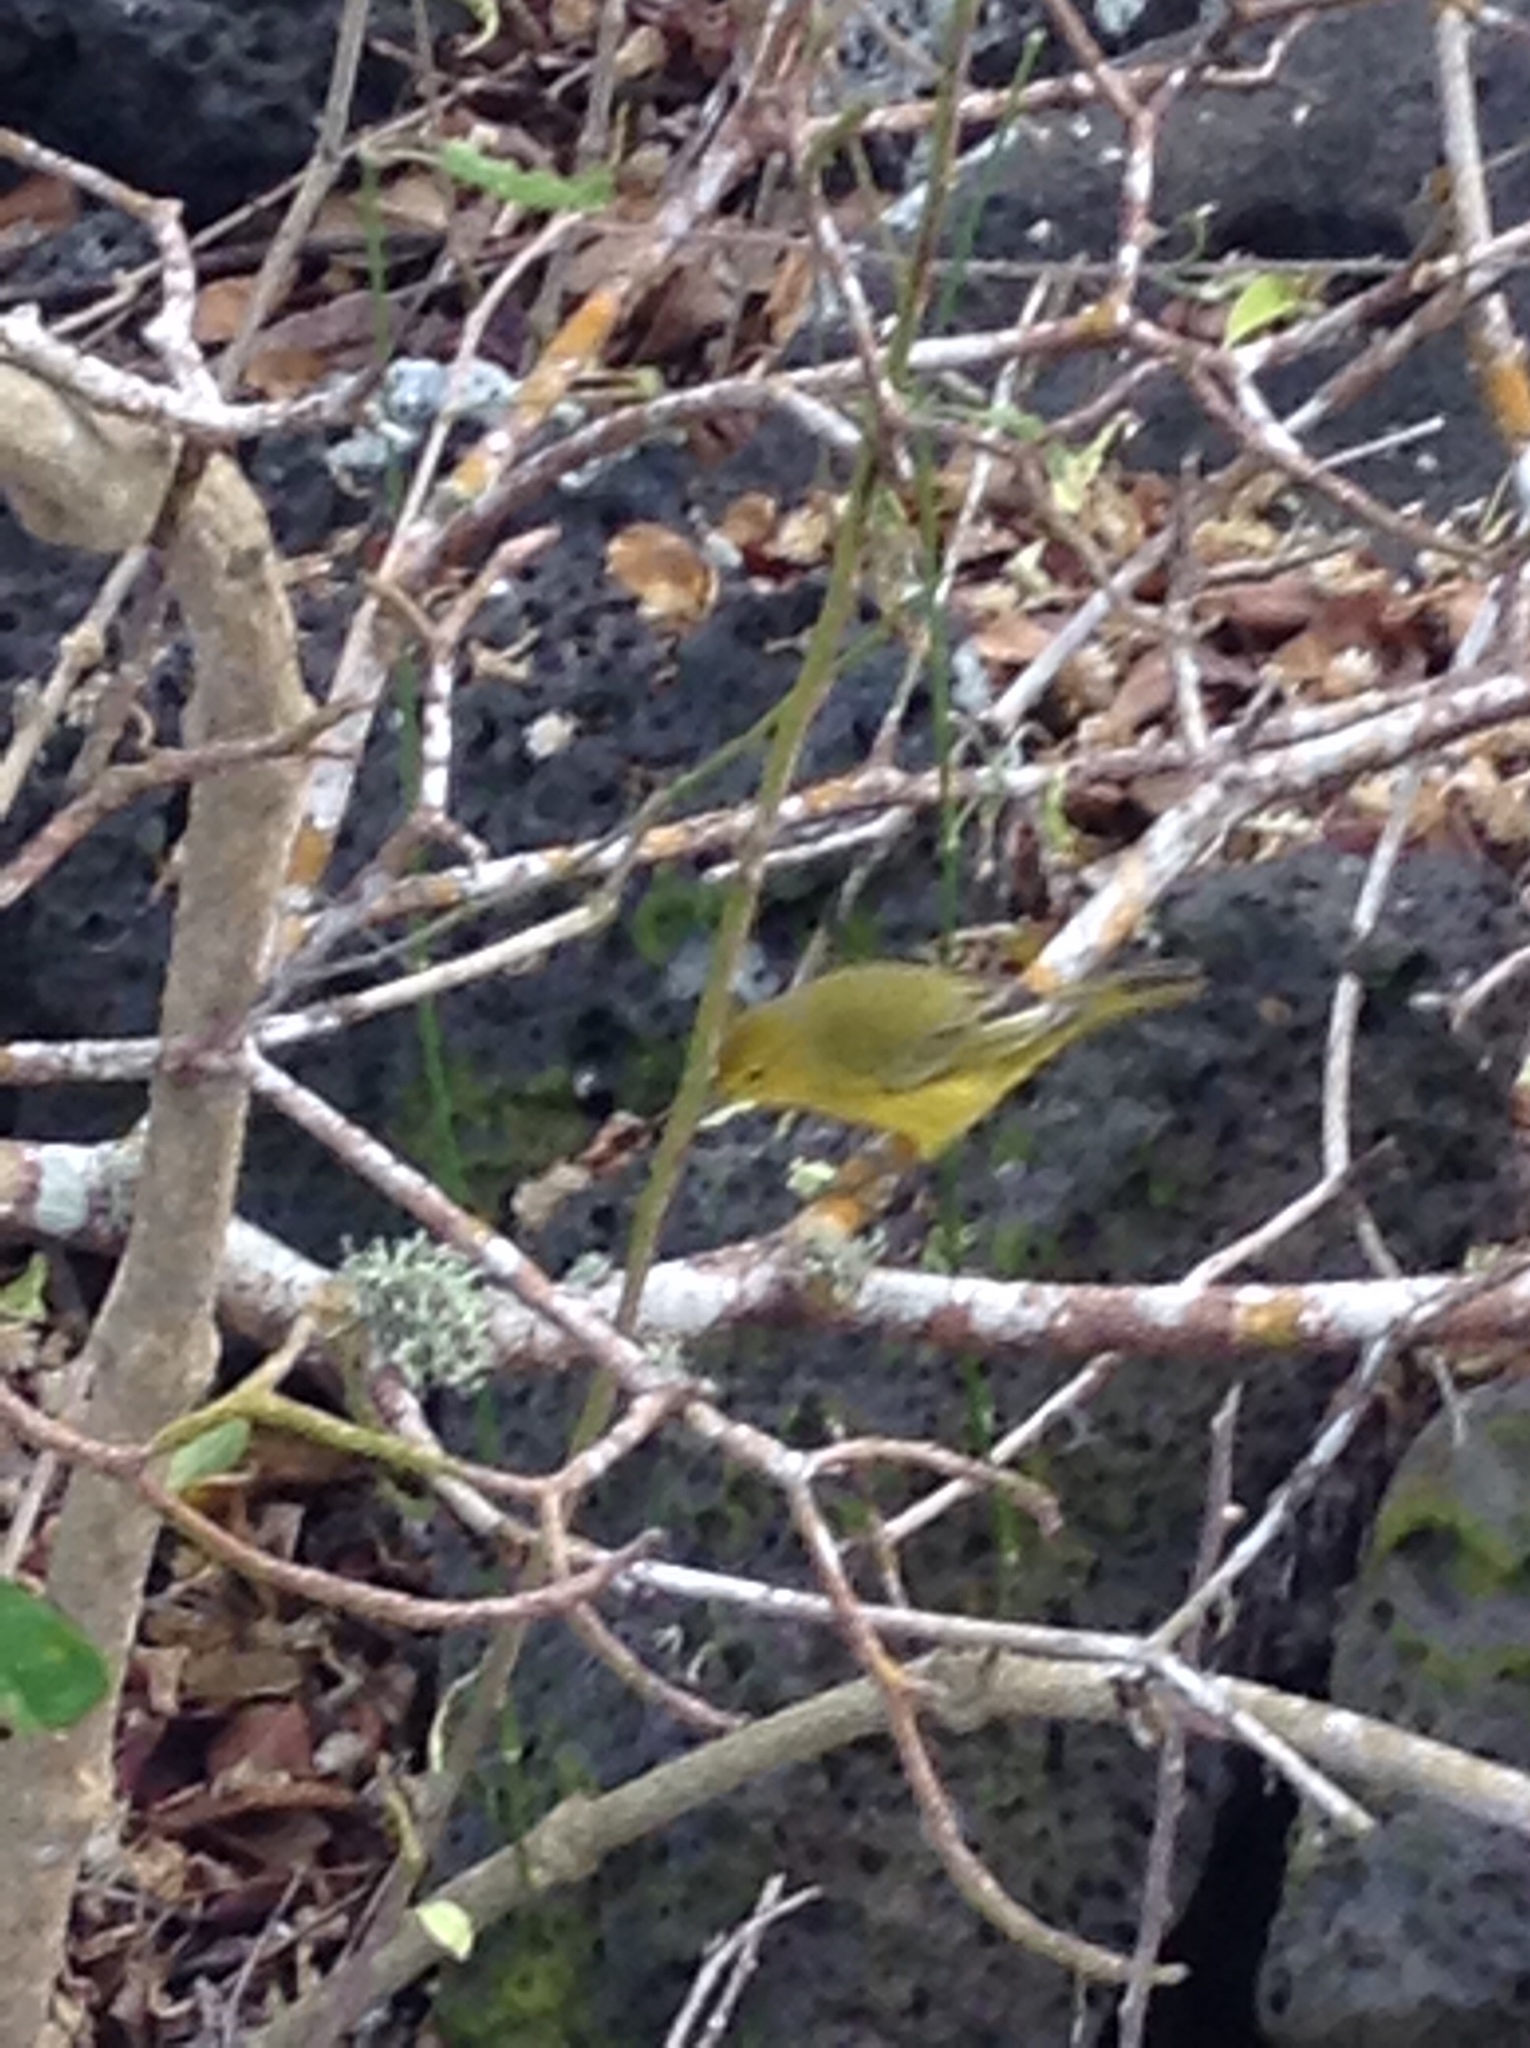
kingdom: Animalia
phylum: Chordata
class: Aves
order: Passeriformes
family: Parulidae
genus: Setophaga
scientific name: Setophaga petechia
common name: Yellow warbler
